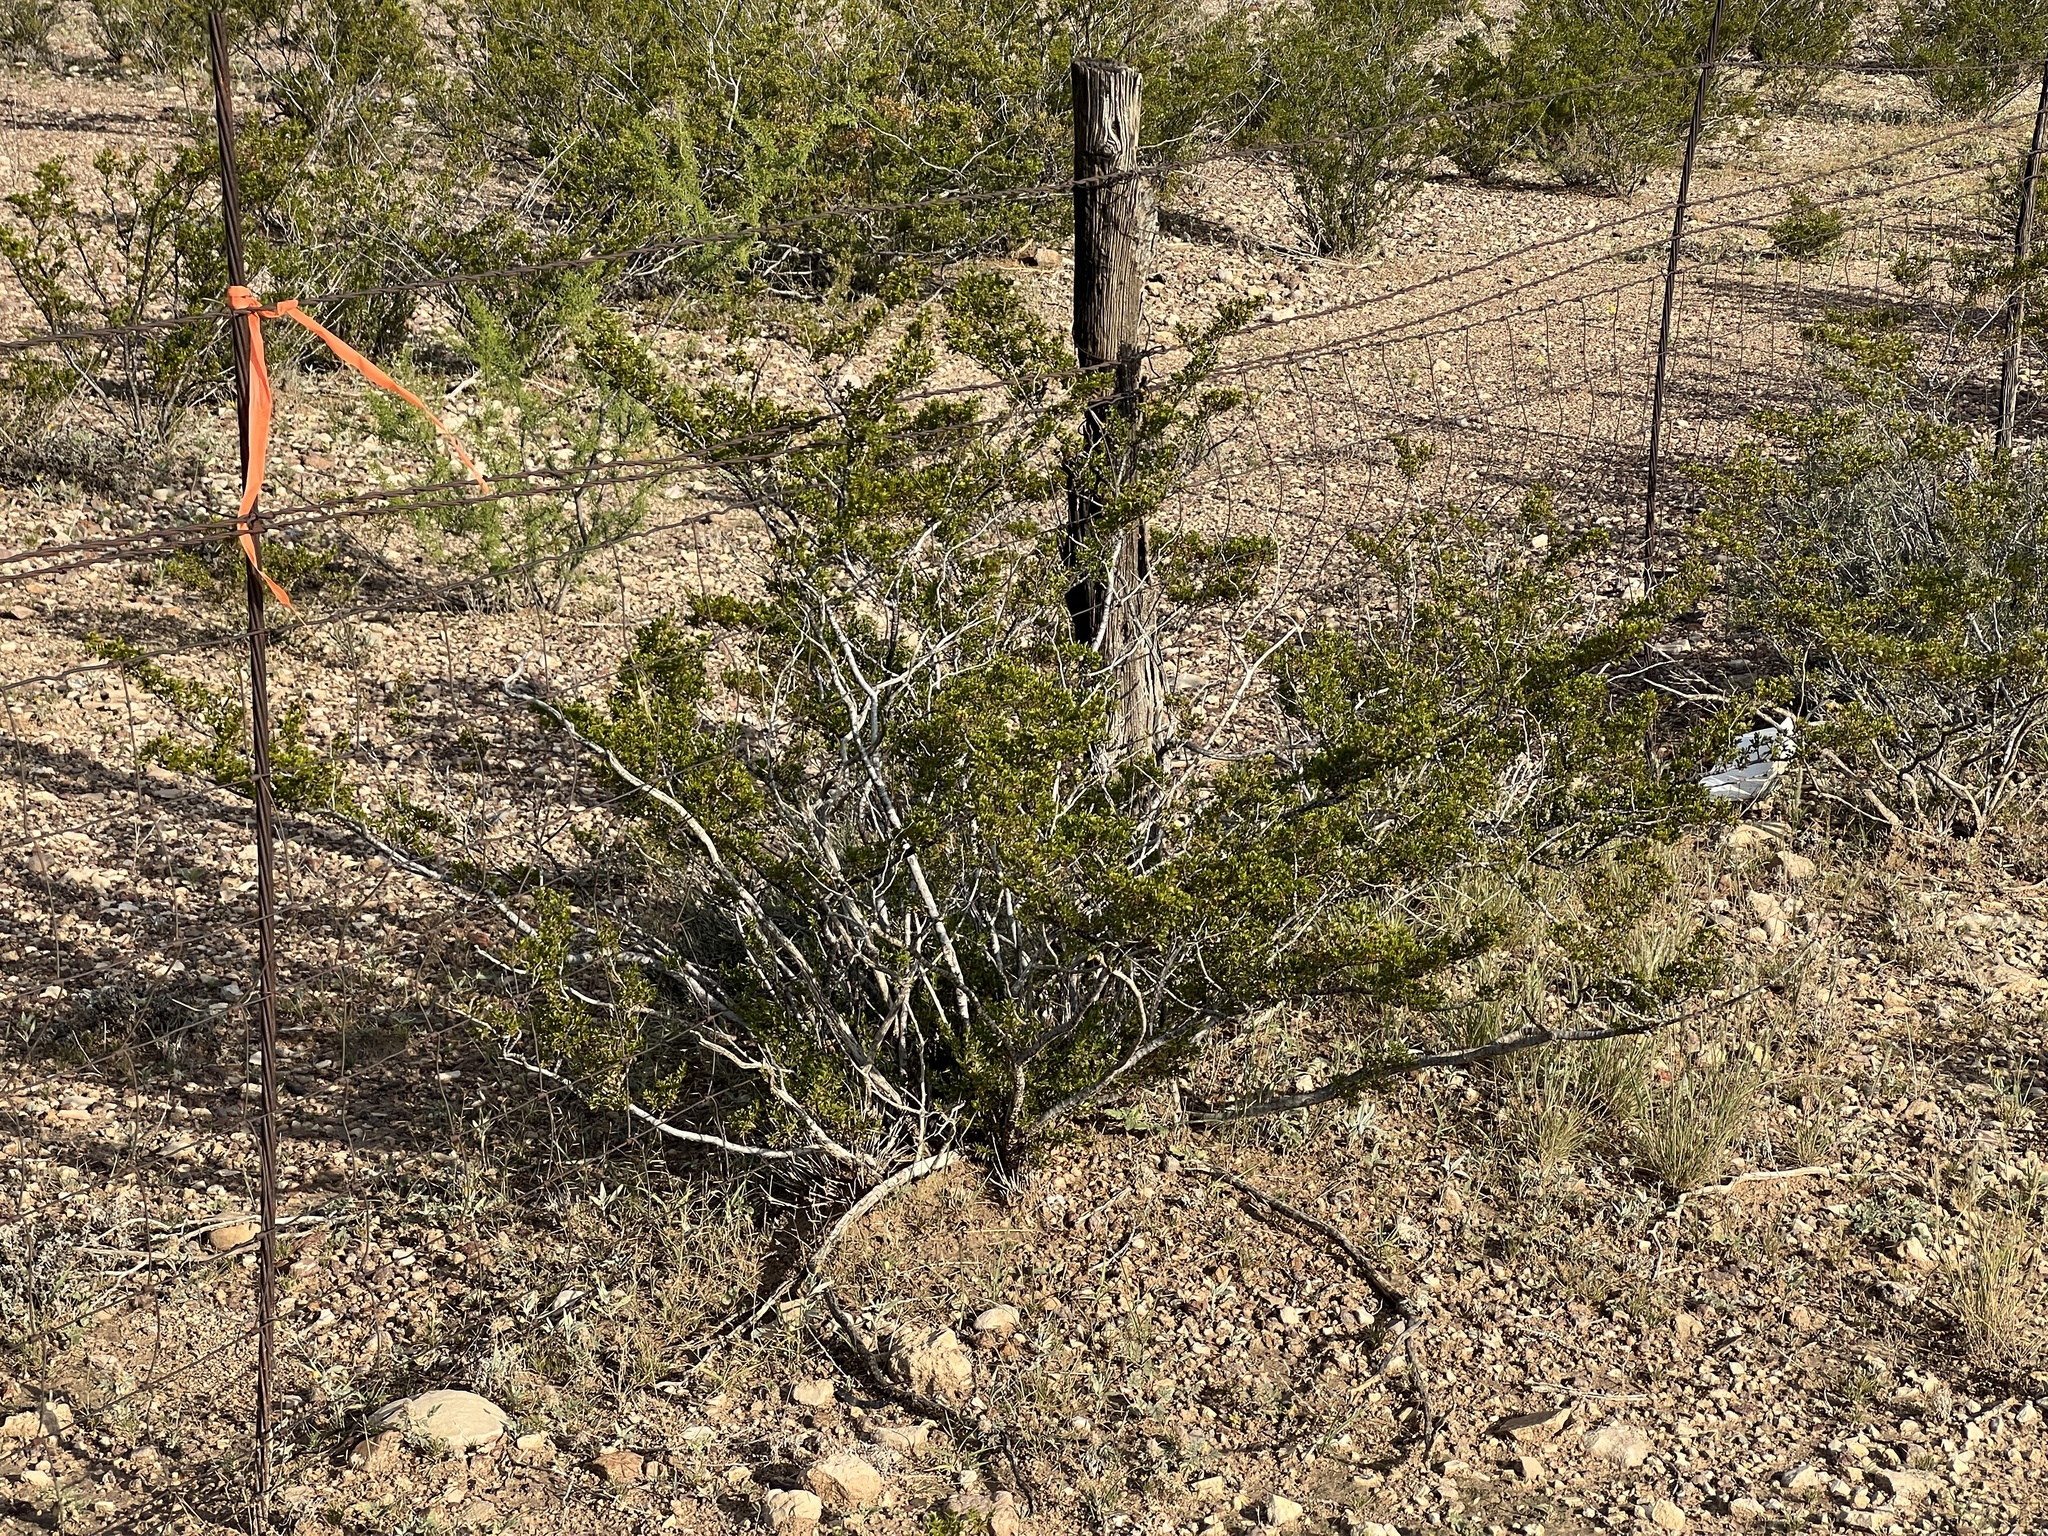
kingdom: Plantae
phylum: Tracheophyta
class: Magnoliopsida
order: Zygophyllales
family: Zygophyllaceae
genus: Larrea
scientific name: Larrea tridentata
